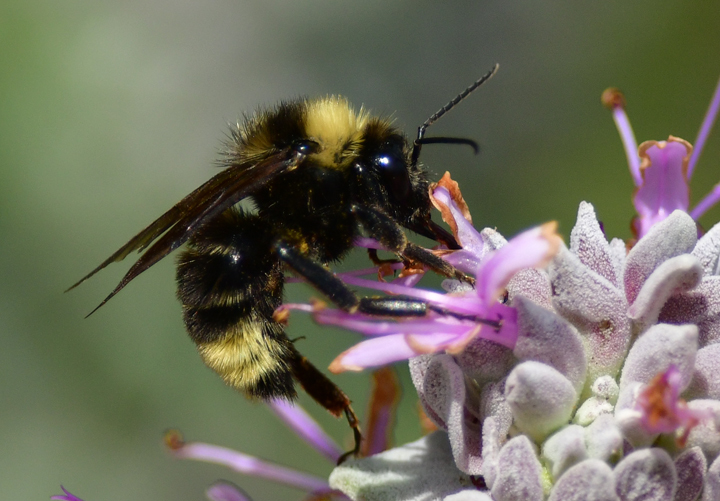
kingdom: Animalia
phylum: Arthropoda
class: Insecta
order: Hymenoptera
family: Apidae
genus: Bombus
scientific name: Bombus californicus
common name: California bumble bee
